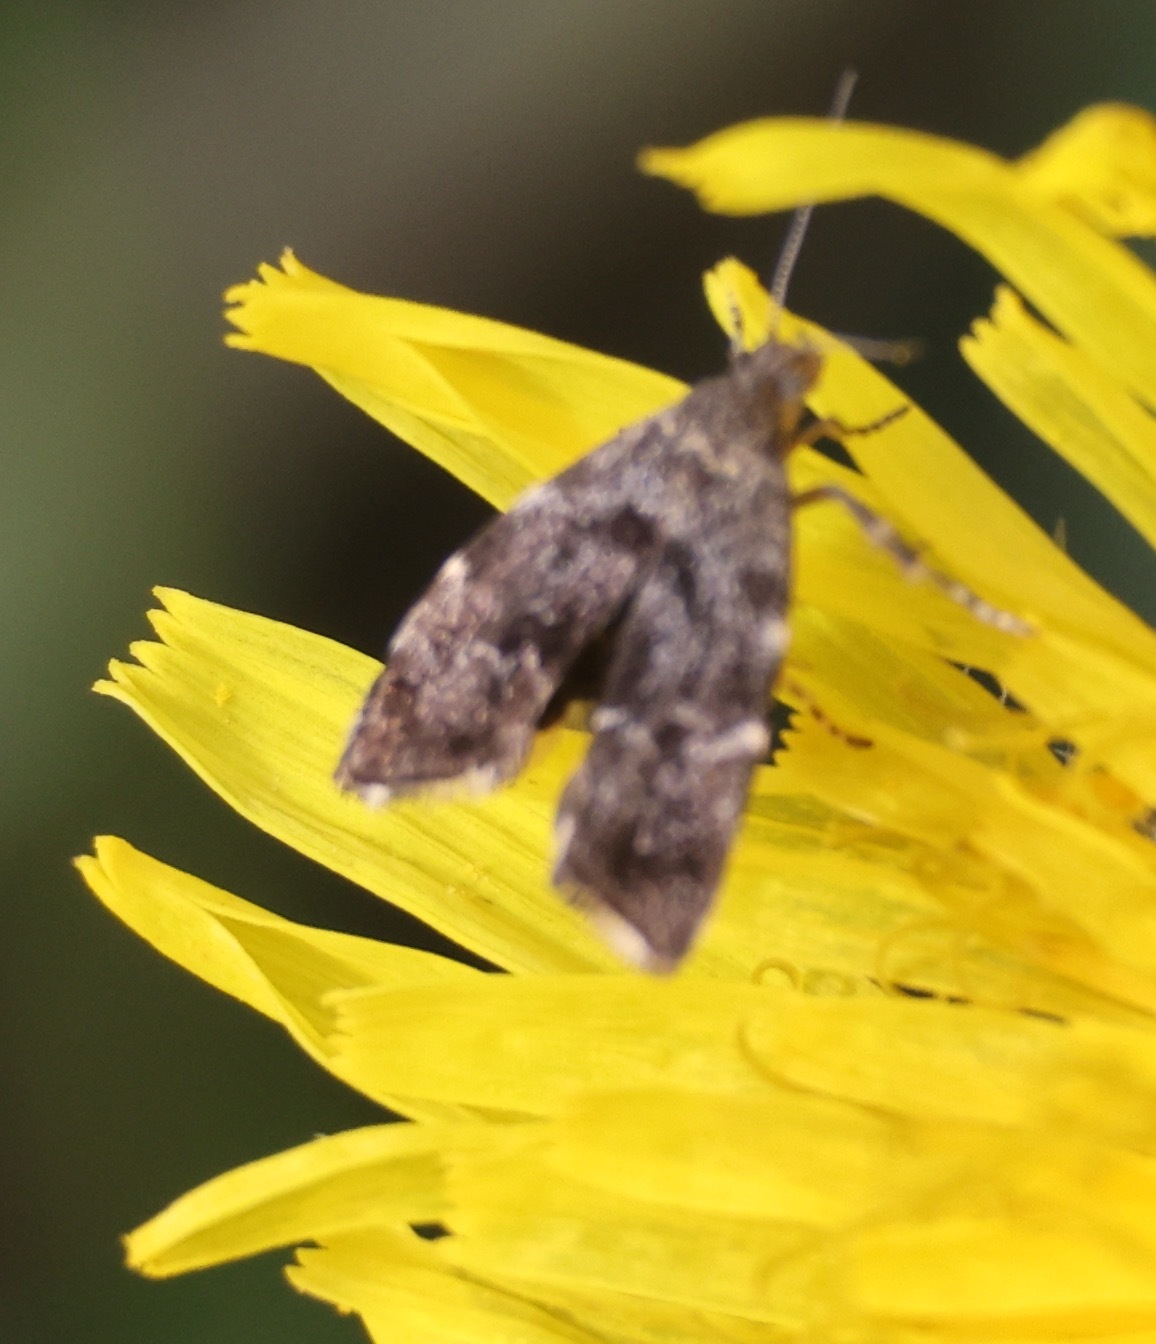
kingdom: Animalia
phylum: Arthropoda
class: Insecta
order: Lepidoptera
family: Choreutidae
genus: Anthophila
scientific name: Anthophila fabriciana
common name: Nettle-tap
